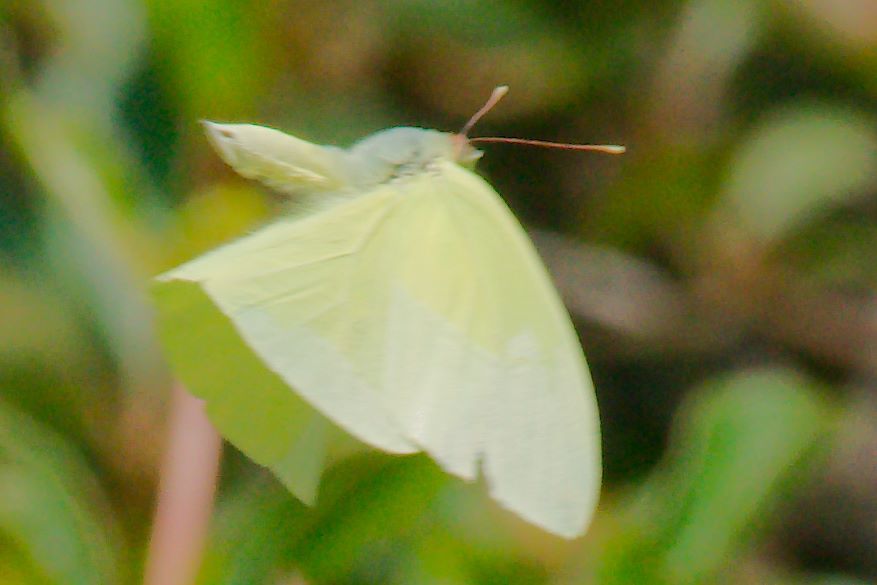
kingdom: Animalia
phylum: Arthropoda
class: Insecta
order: Lepidoptera
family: Pieridae
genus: Aphrissa
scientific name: Aphrissa statira
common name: Statira sulphur
